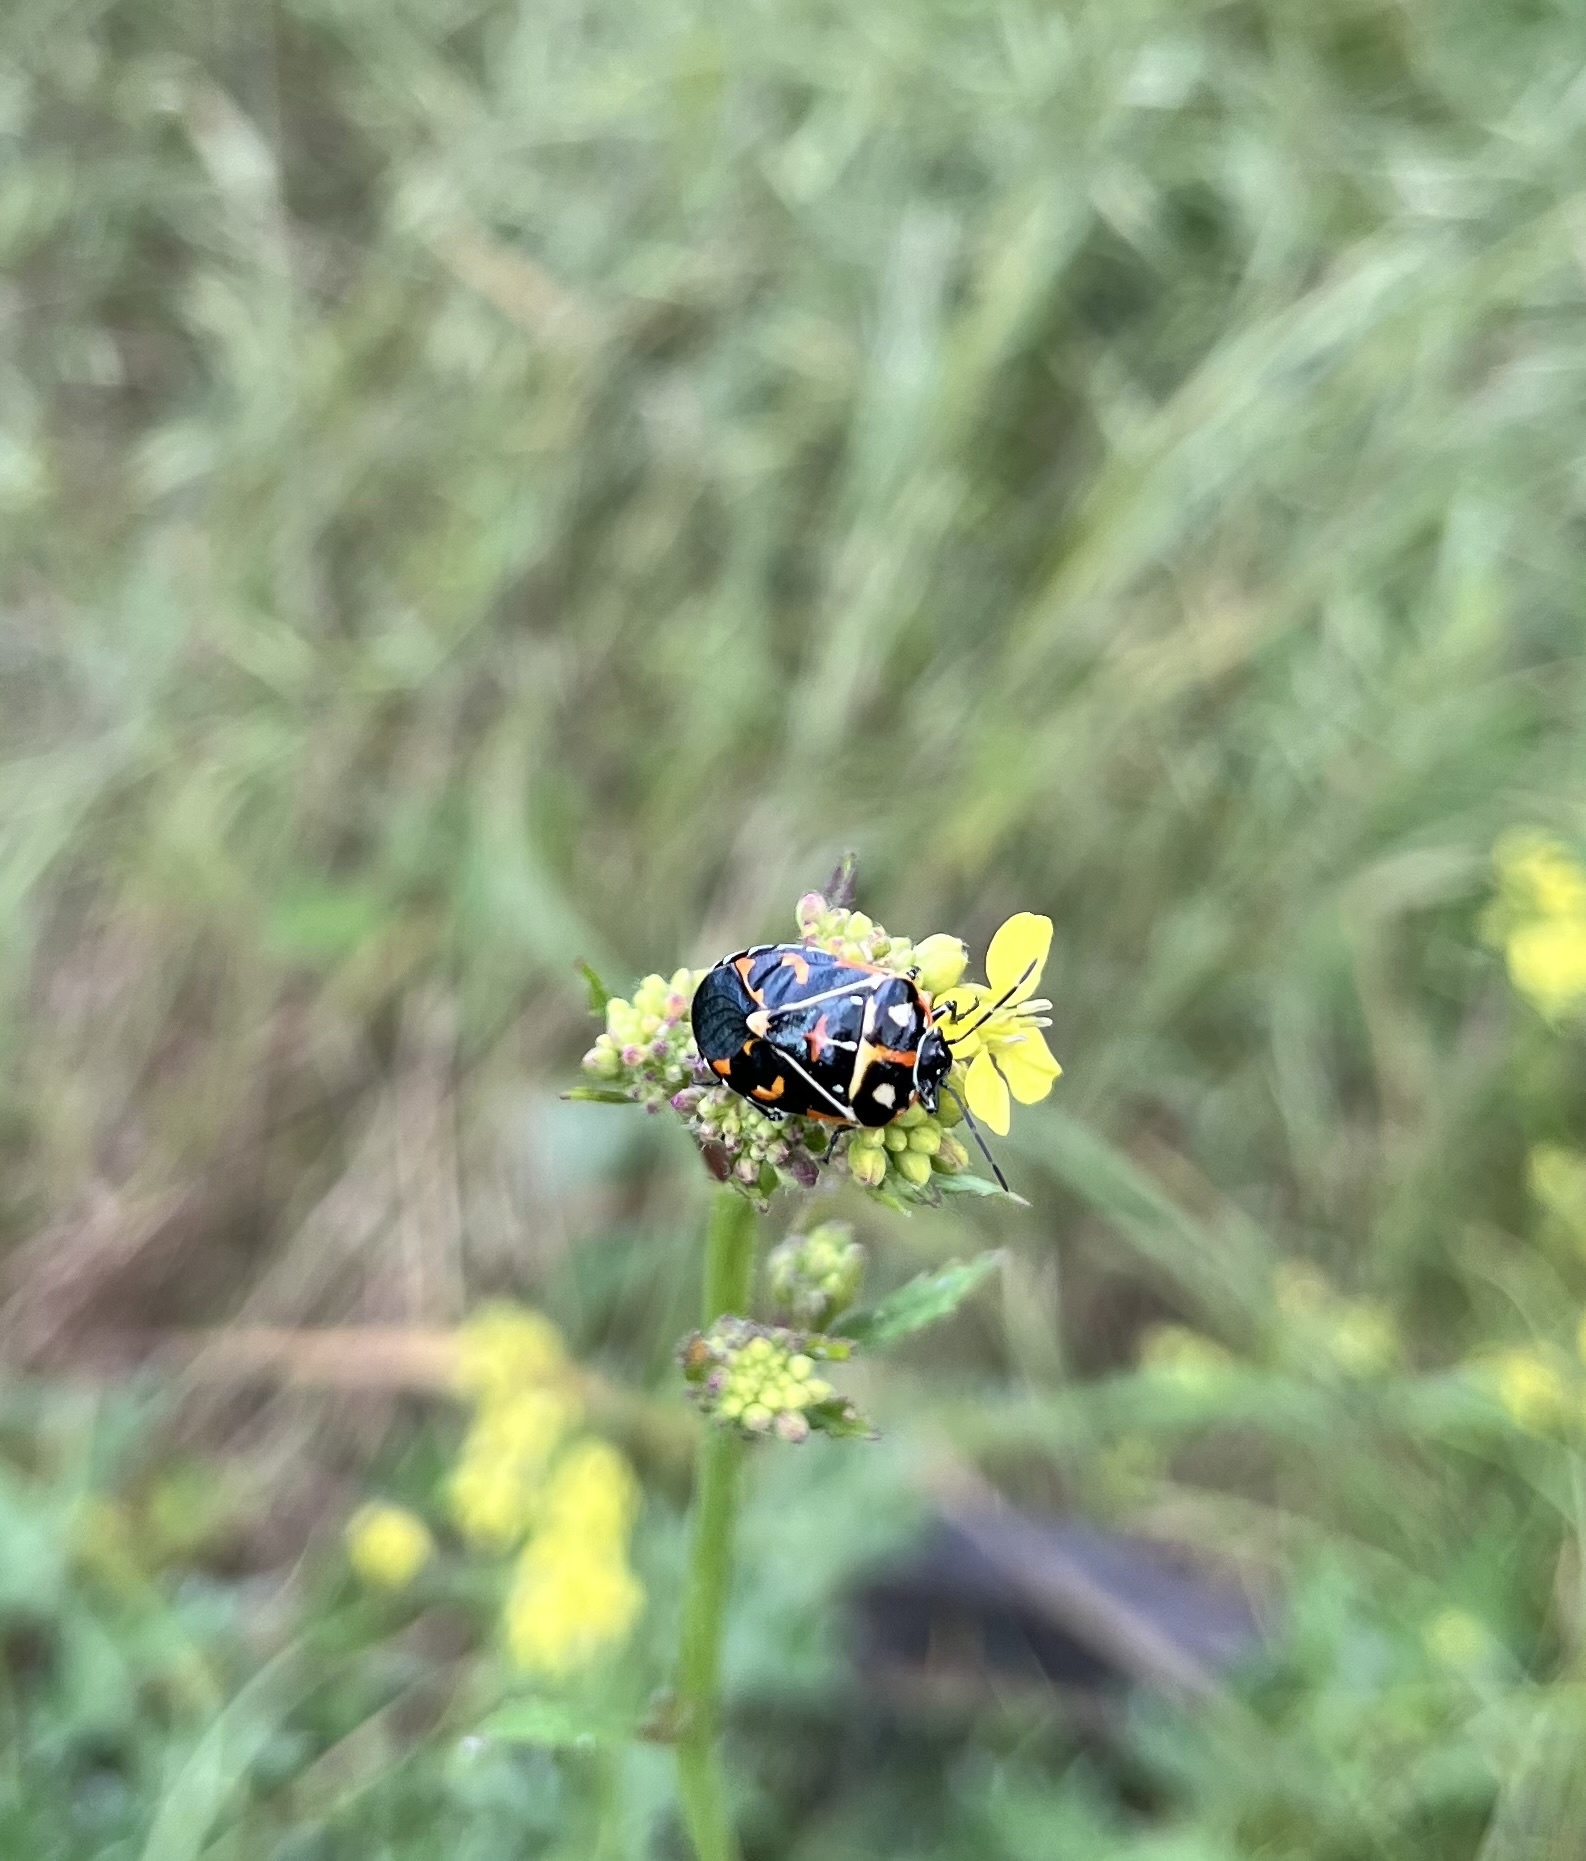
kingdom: Animalia
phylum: Arthropoda
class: Insecta
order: Hemiptera
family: Pentatomidae
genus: Murgantia
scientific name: Murgantia histrionica
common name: Harlequin bug
